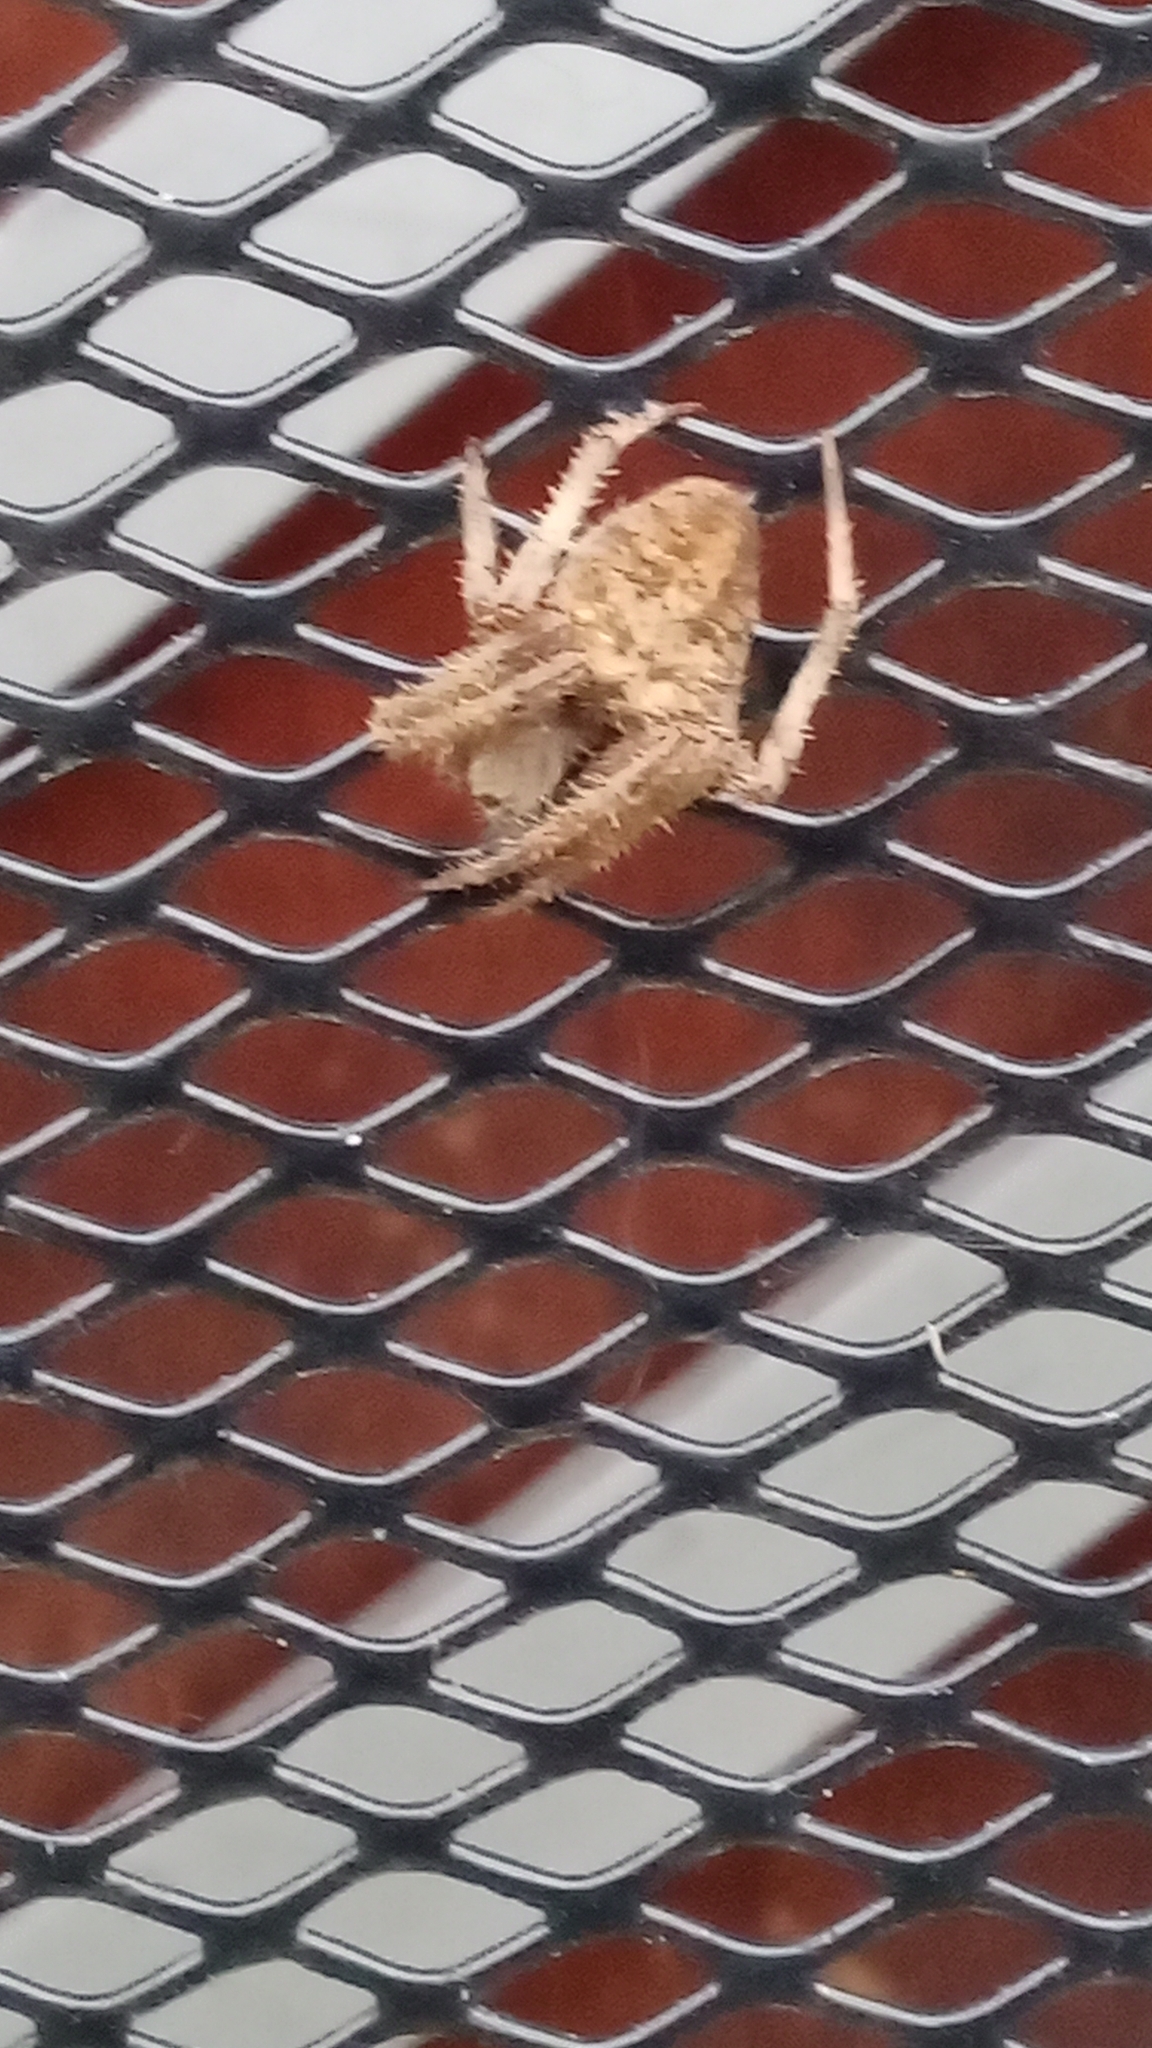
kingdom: Animalia
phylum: Arthropoda
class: Arachnida
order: Araneae
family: Araneidae
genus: Neoscona
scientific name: Neoscona crucifera
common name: Spotted orbweaver
